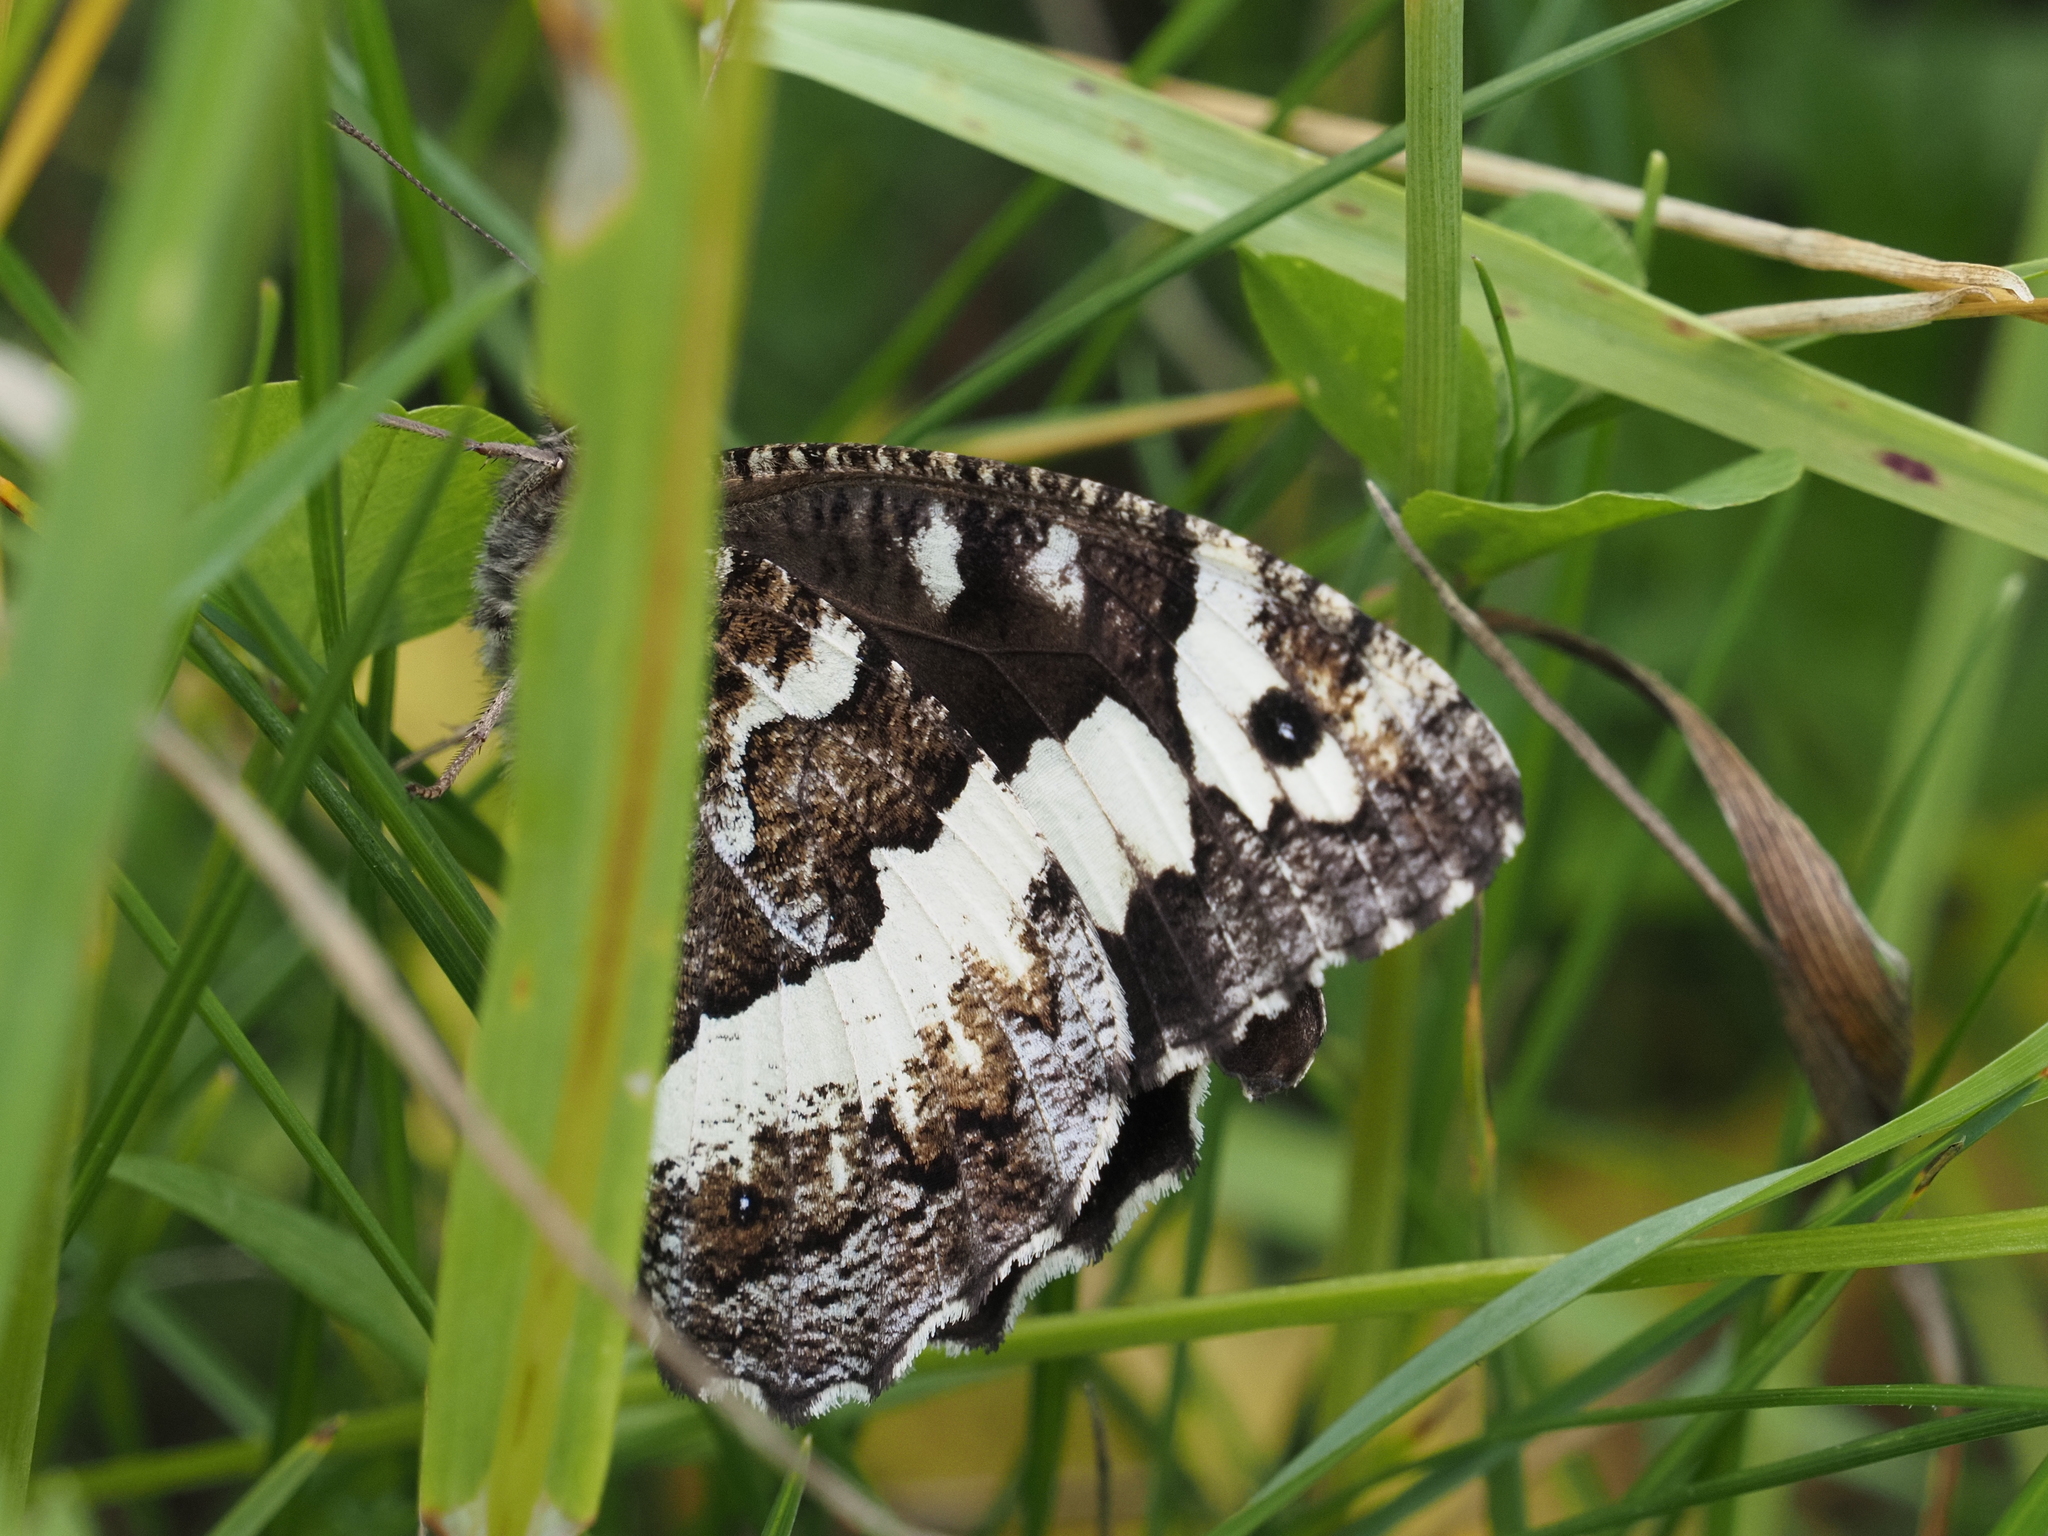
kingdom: Animalia
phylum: Arthropoda
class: Insecta
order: Lepidoptera
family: Lycaenidae
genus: Loweia
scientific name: Loweia tityrus
